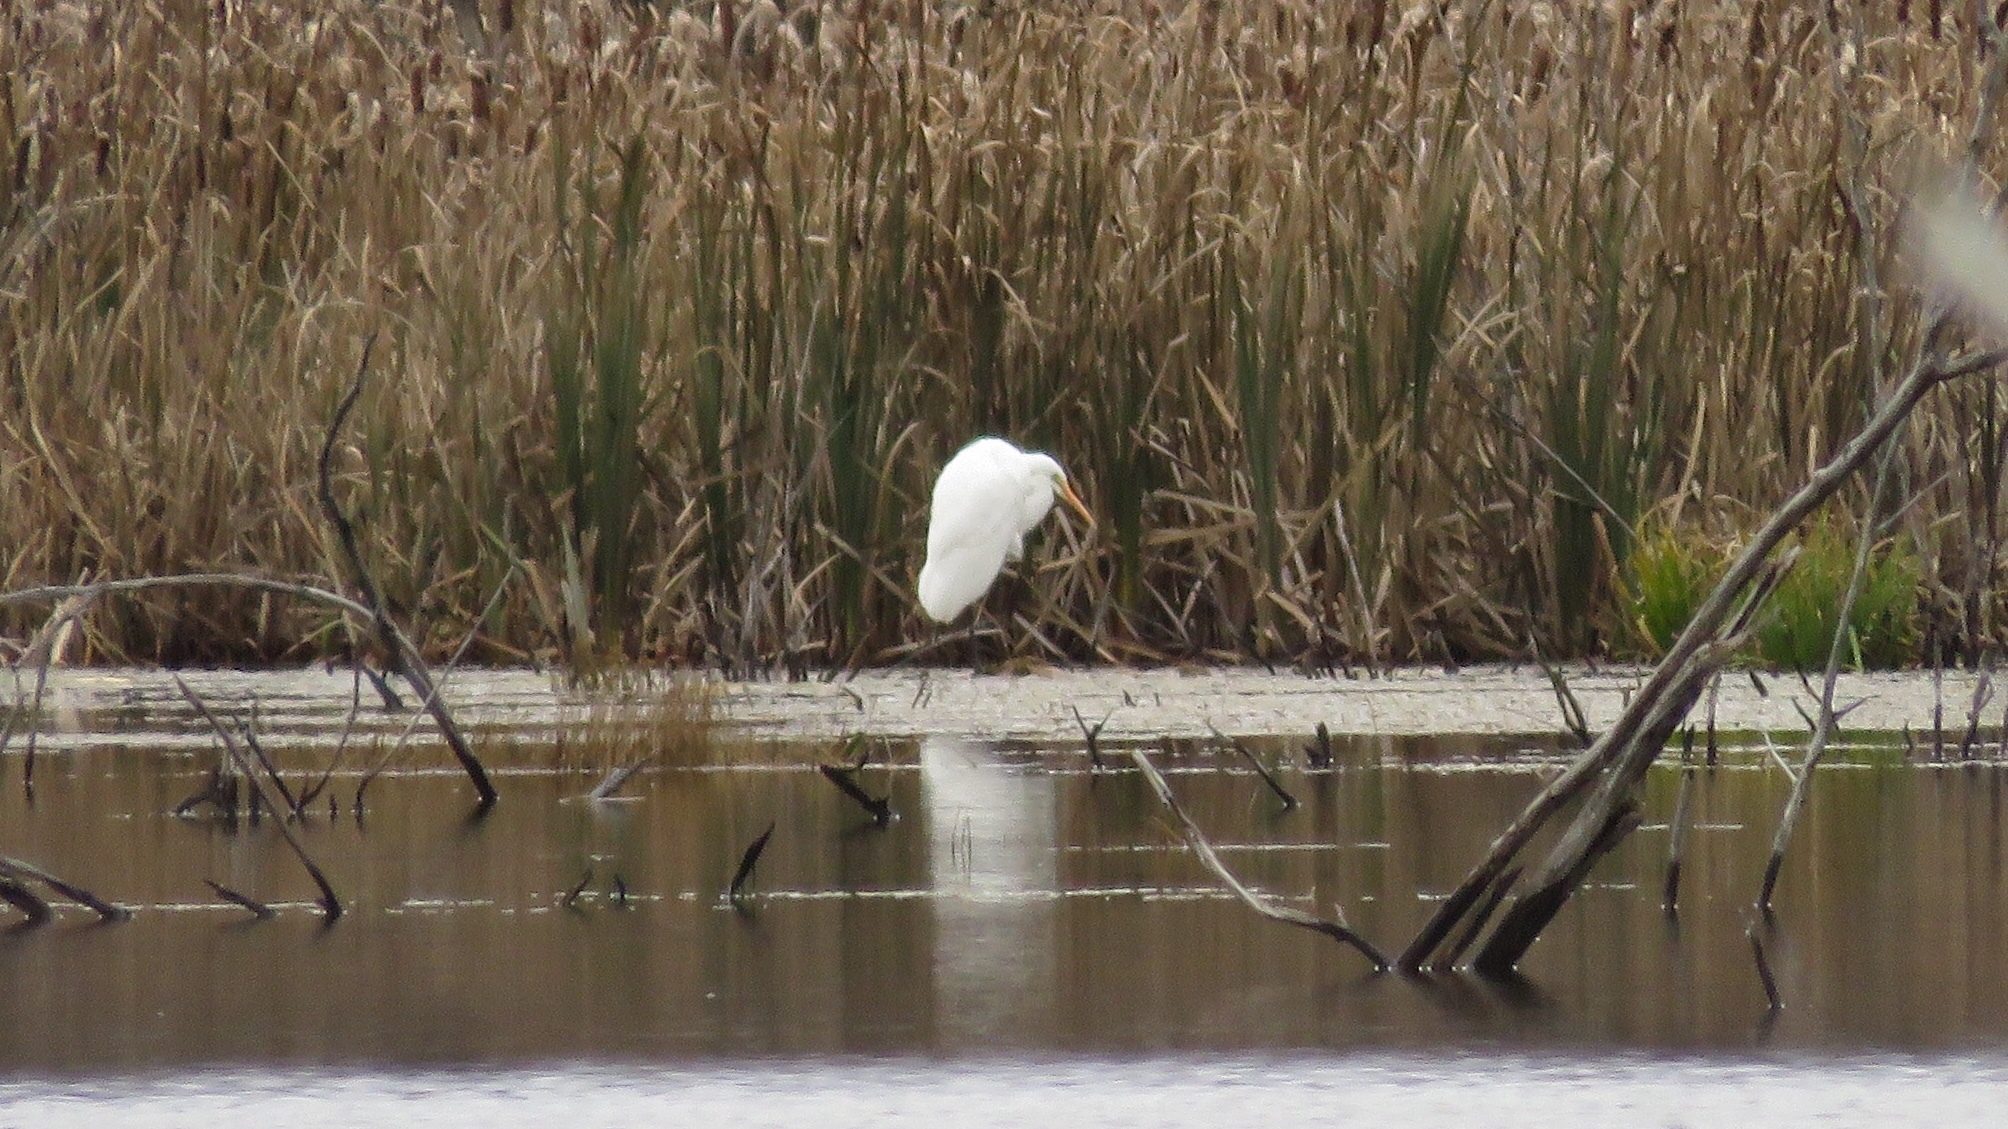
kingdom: Animalia
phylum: Chordata
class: Aves
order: Pelecaniformes
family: Ardeidae
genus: Ardea
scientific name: Ardea alba
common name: Great egret
